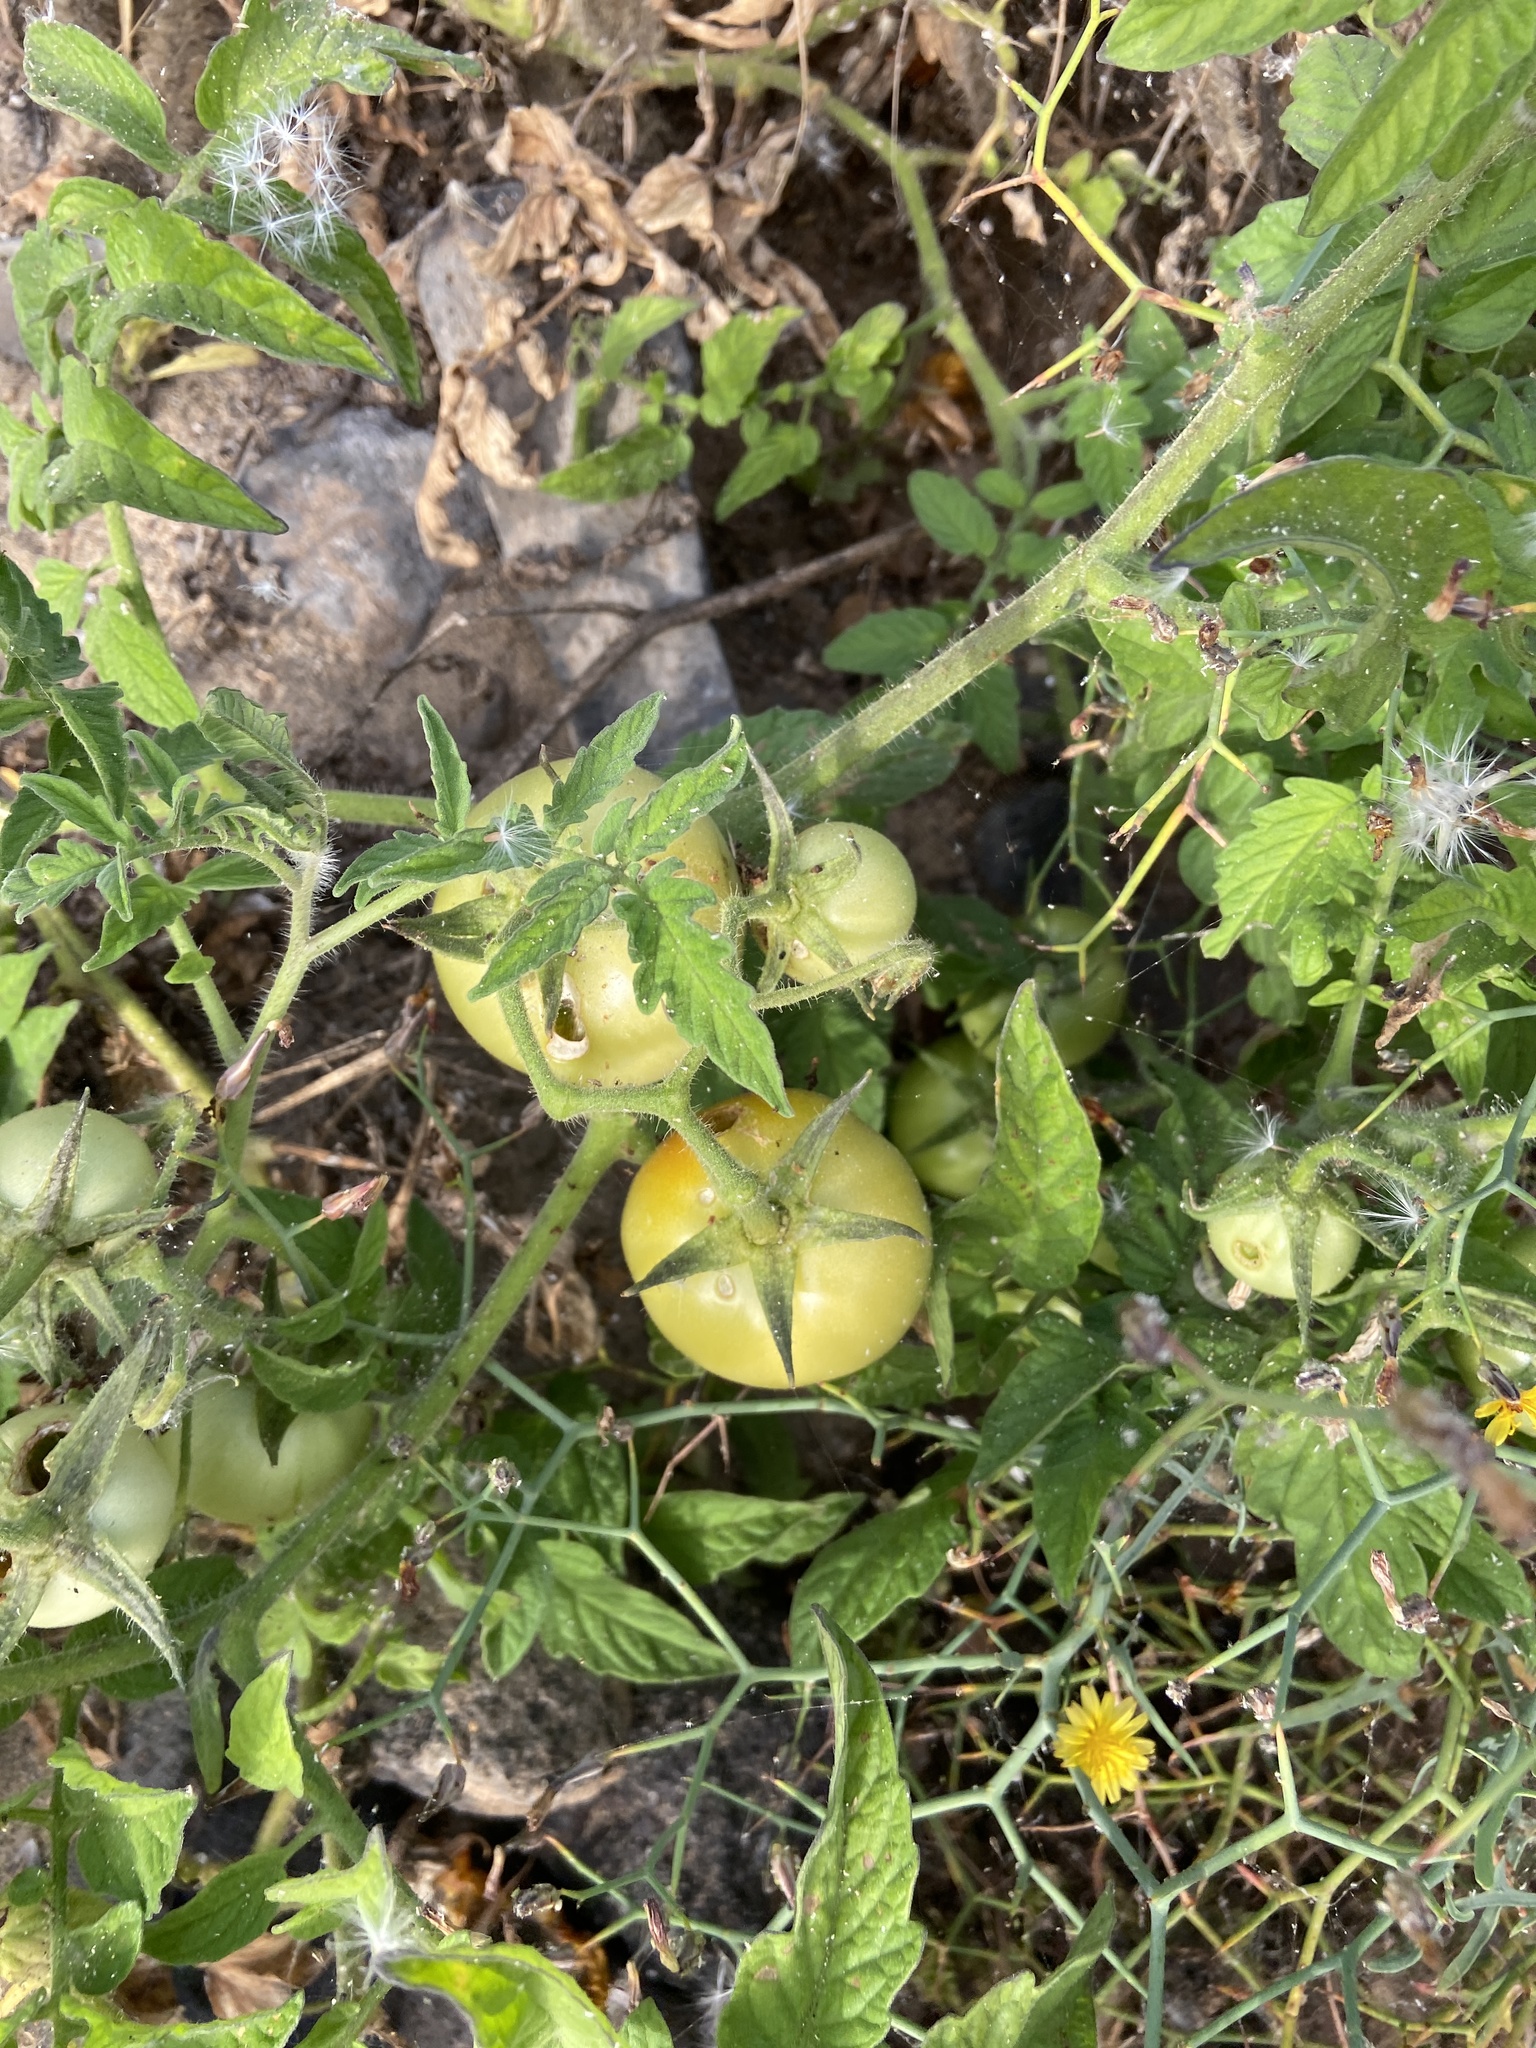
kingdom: Plantae
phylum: Tracheophyta
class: Magnoliopsida
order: Solanales
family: Solanaceae
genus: Solanum
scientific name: Solanum lycopersicum
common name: Garden tomato
